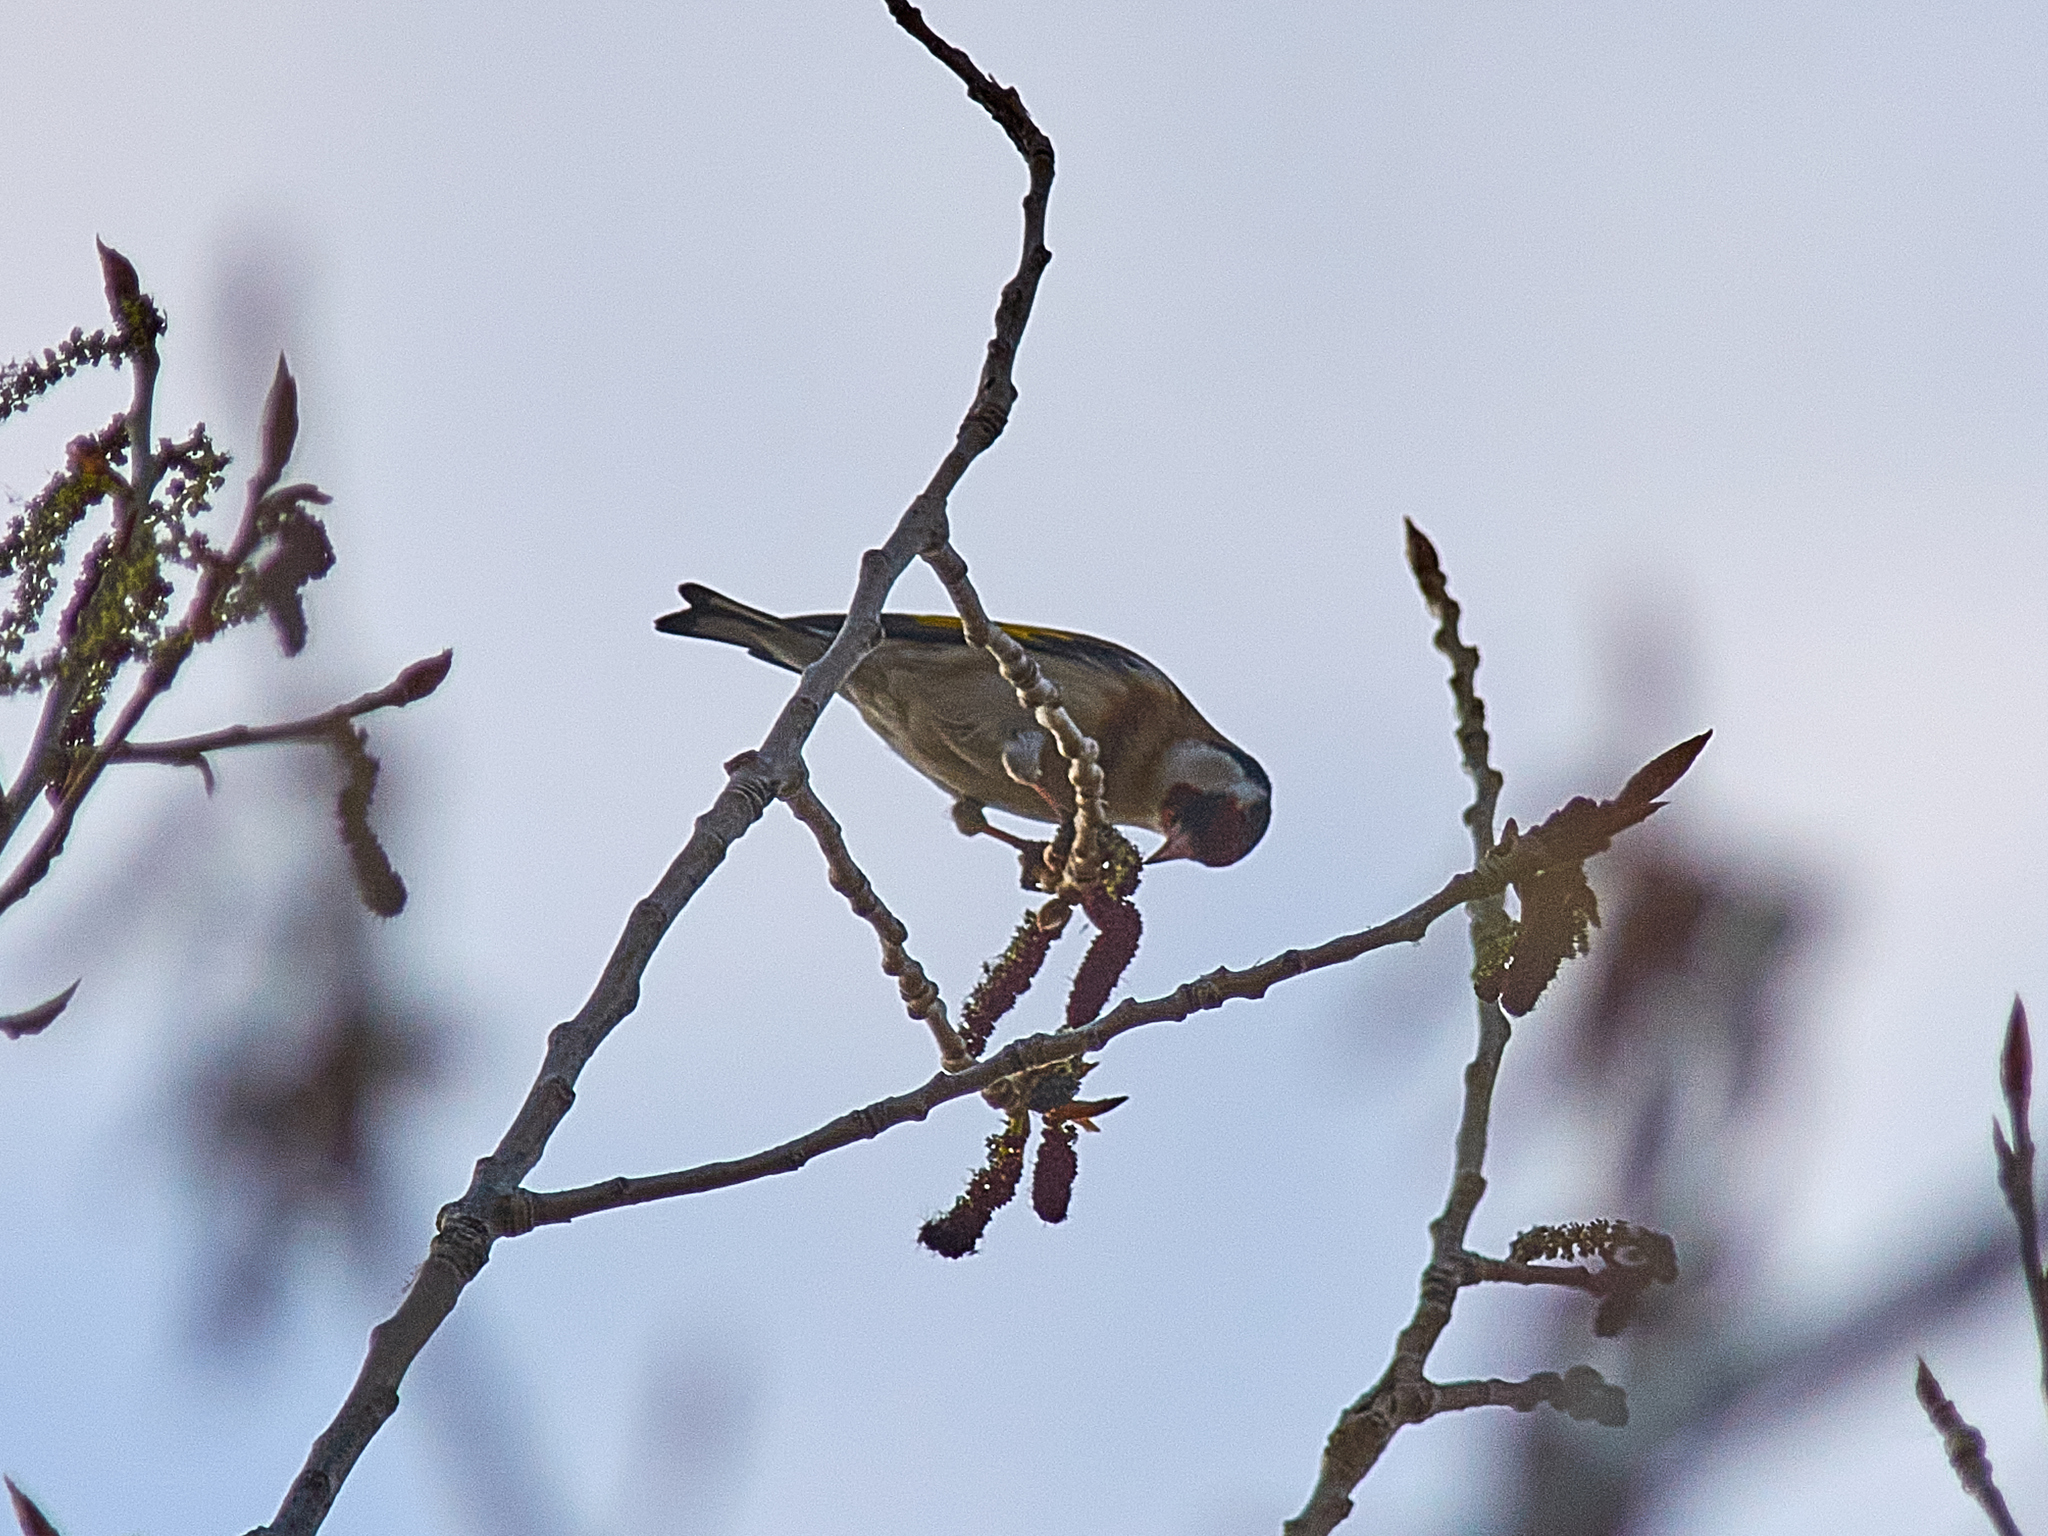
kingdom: Animalia
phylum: Chordata
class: Aves
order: Passeriformes
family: Fringillidae
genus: Carduelis
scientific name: Carduelis carduelis
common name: European goldfinch
